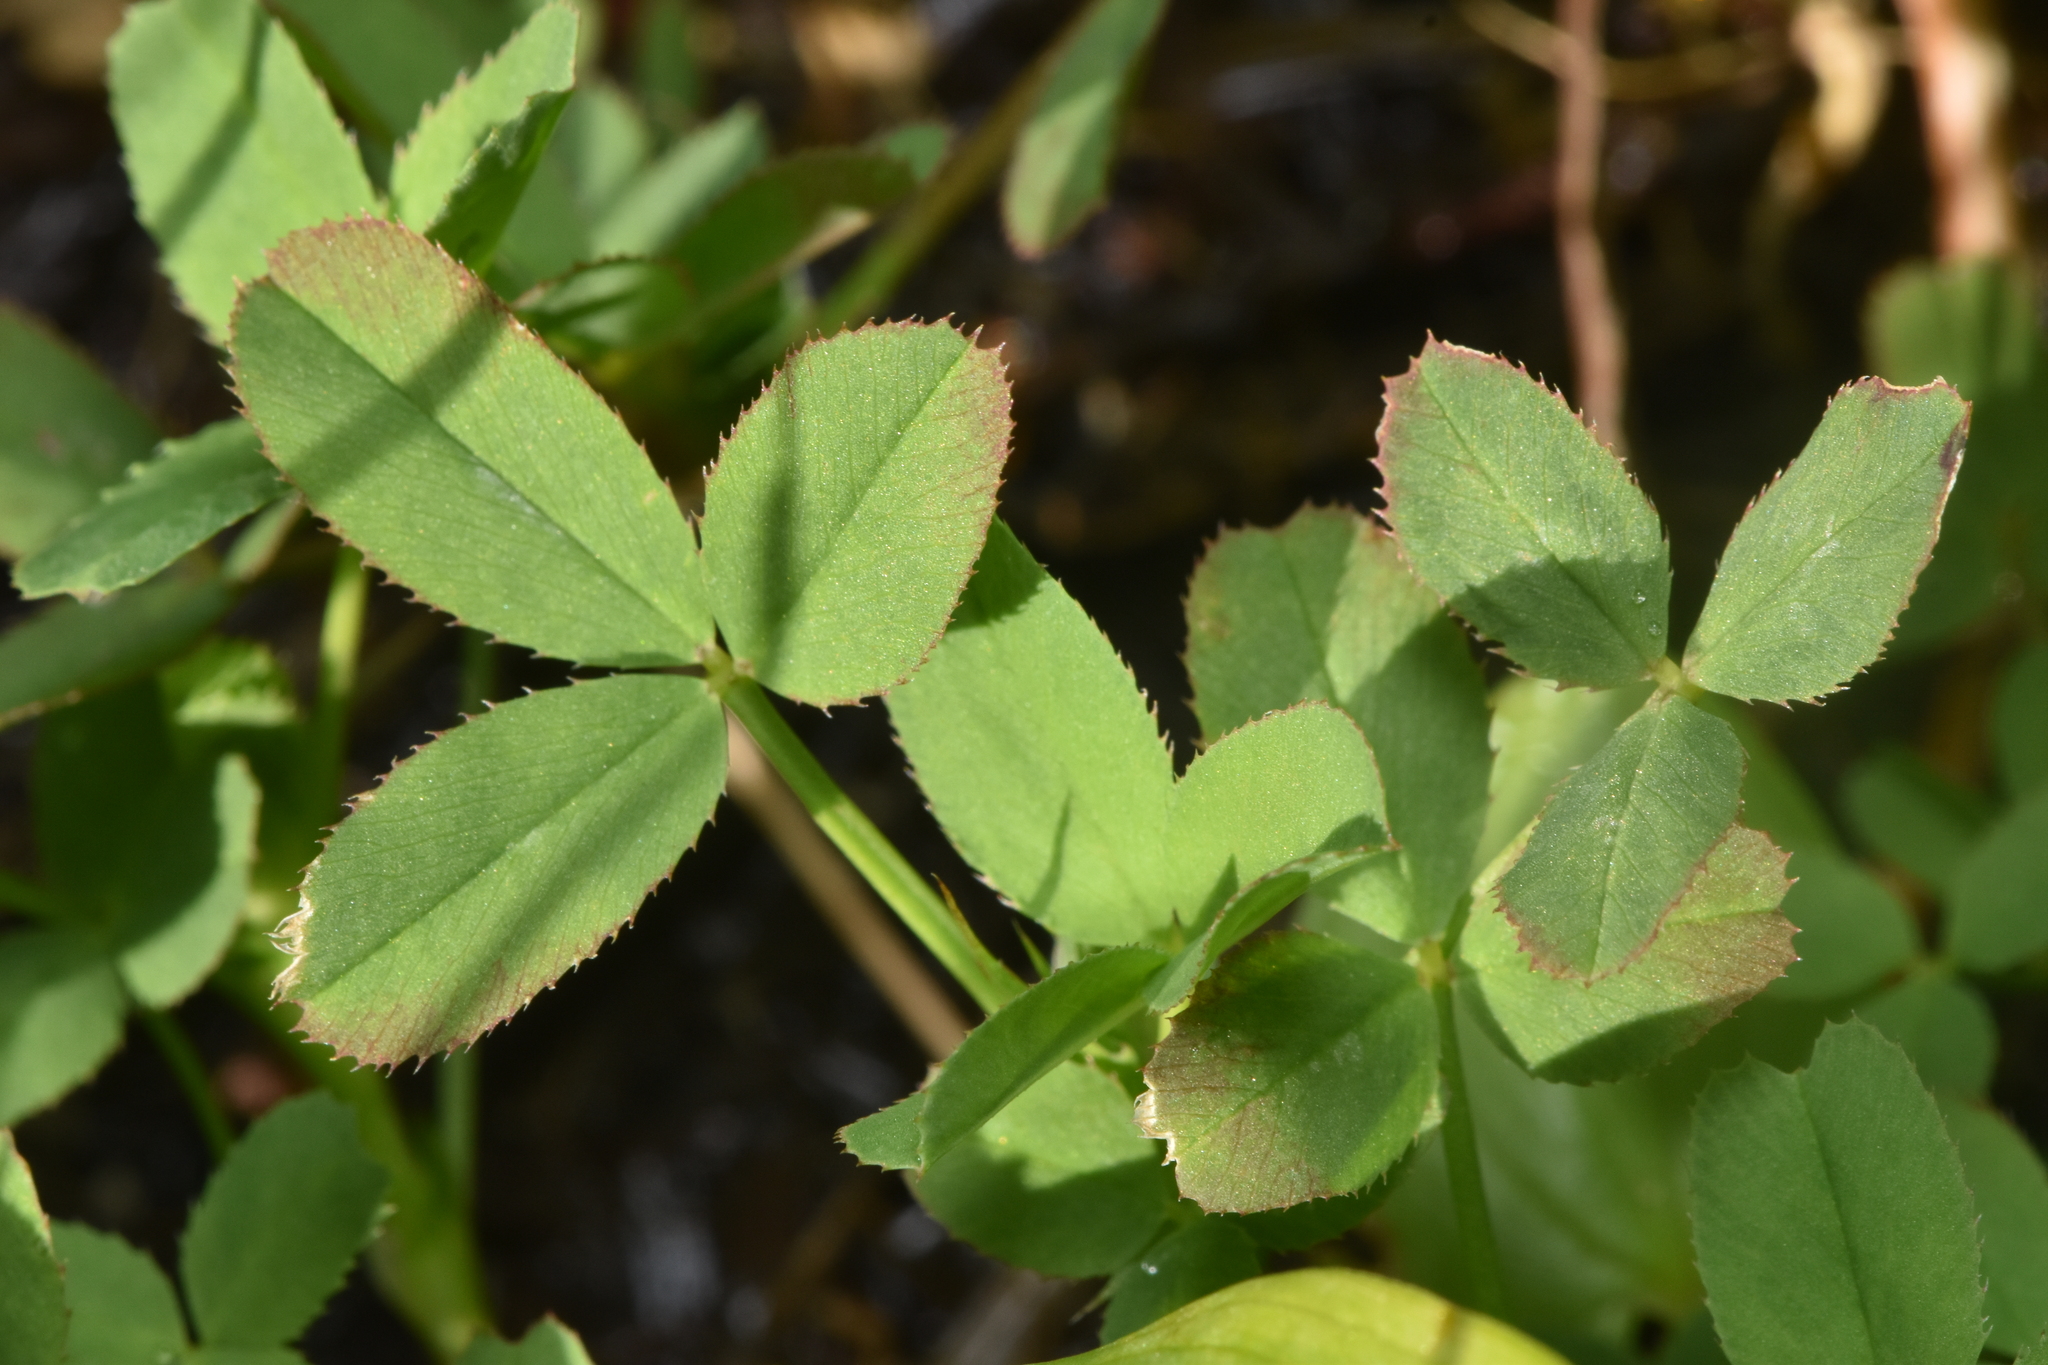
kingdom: Plantae
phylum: Tracheophyta
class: Magnoliopsida
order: Fabales
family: Fabaceae
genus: Trifolium
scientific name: Trifolium wormskioldii
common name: Springbank clover
